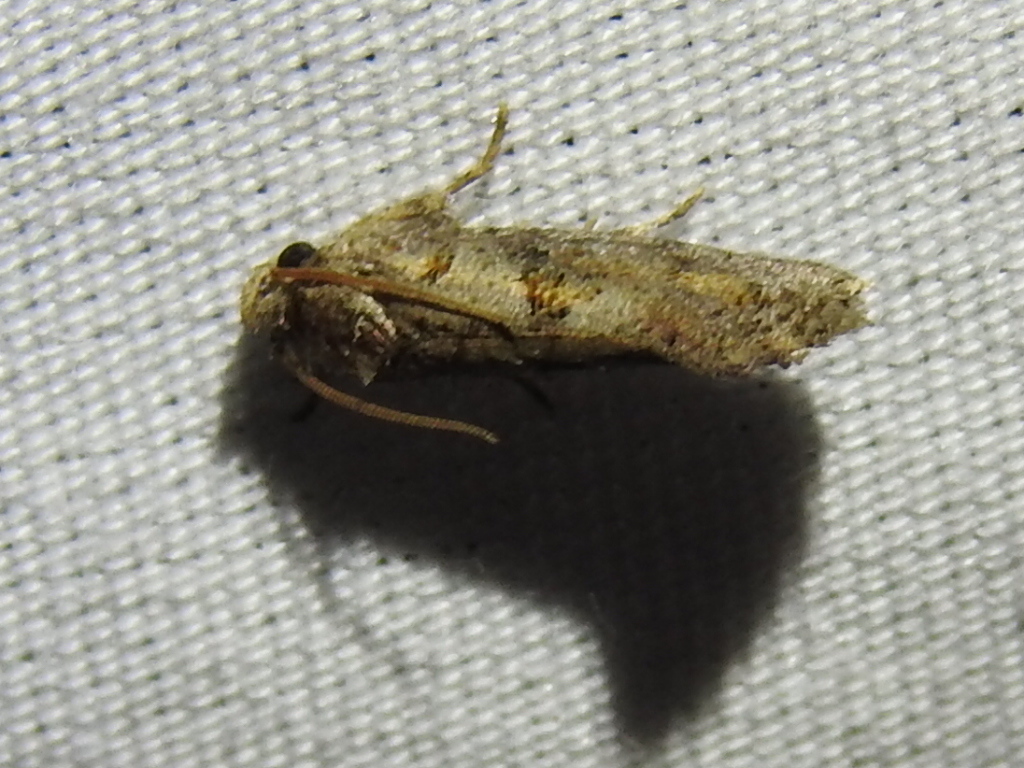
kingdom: Animalia
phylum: Arthropoda
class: Insecta
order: Lepidoptera
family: Tineidae
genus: Acrolophus
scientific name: Acrolophus piger
